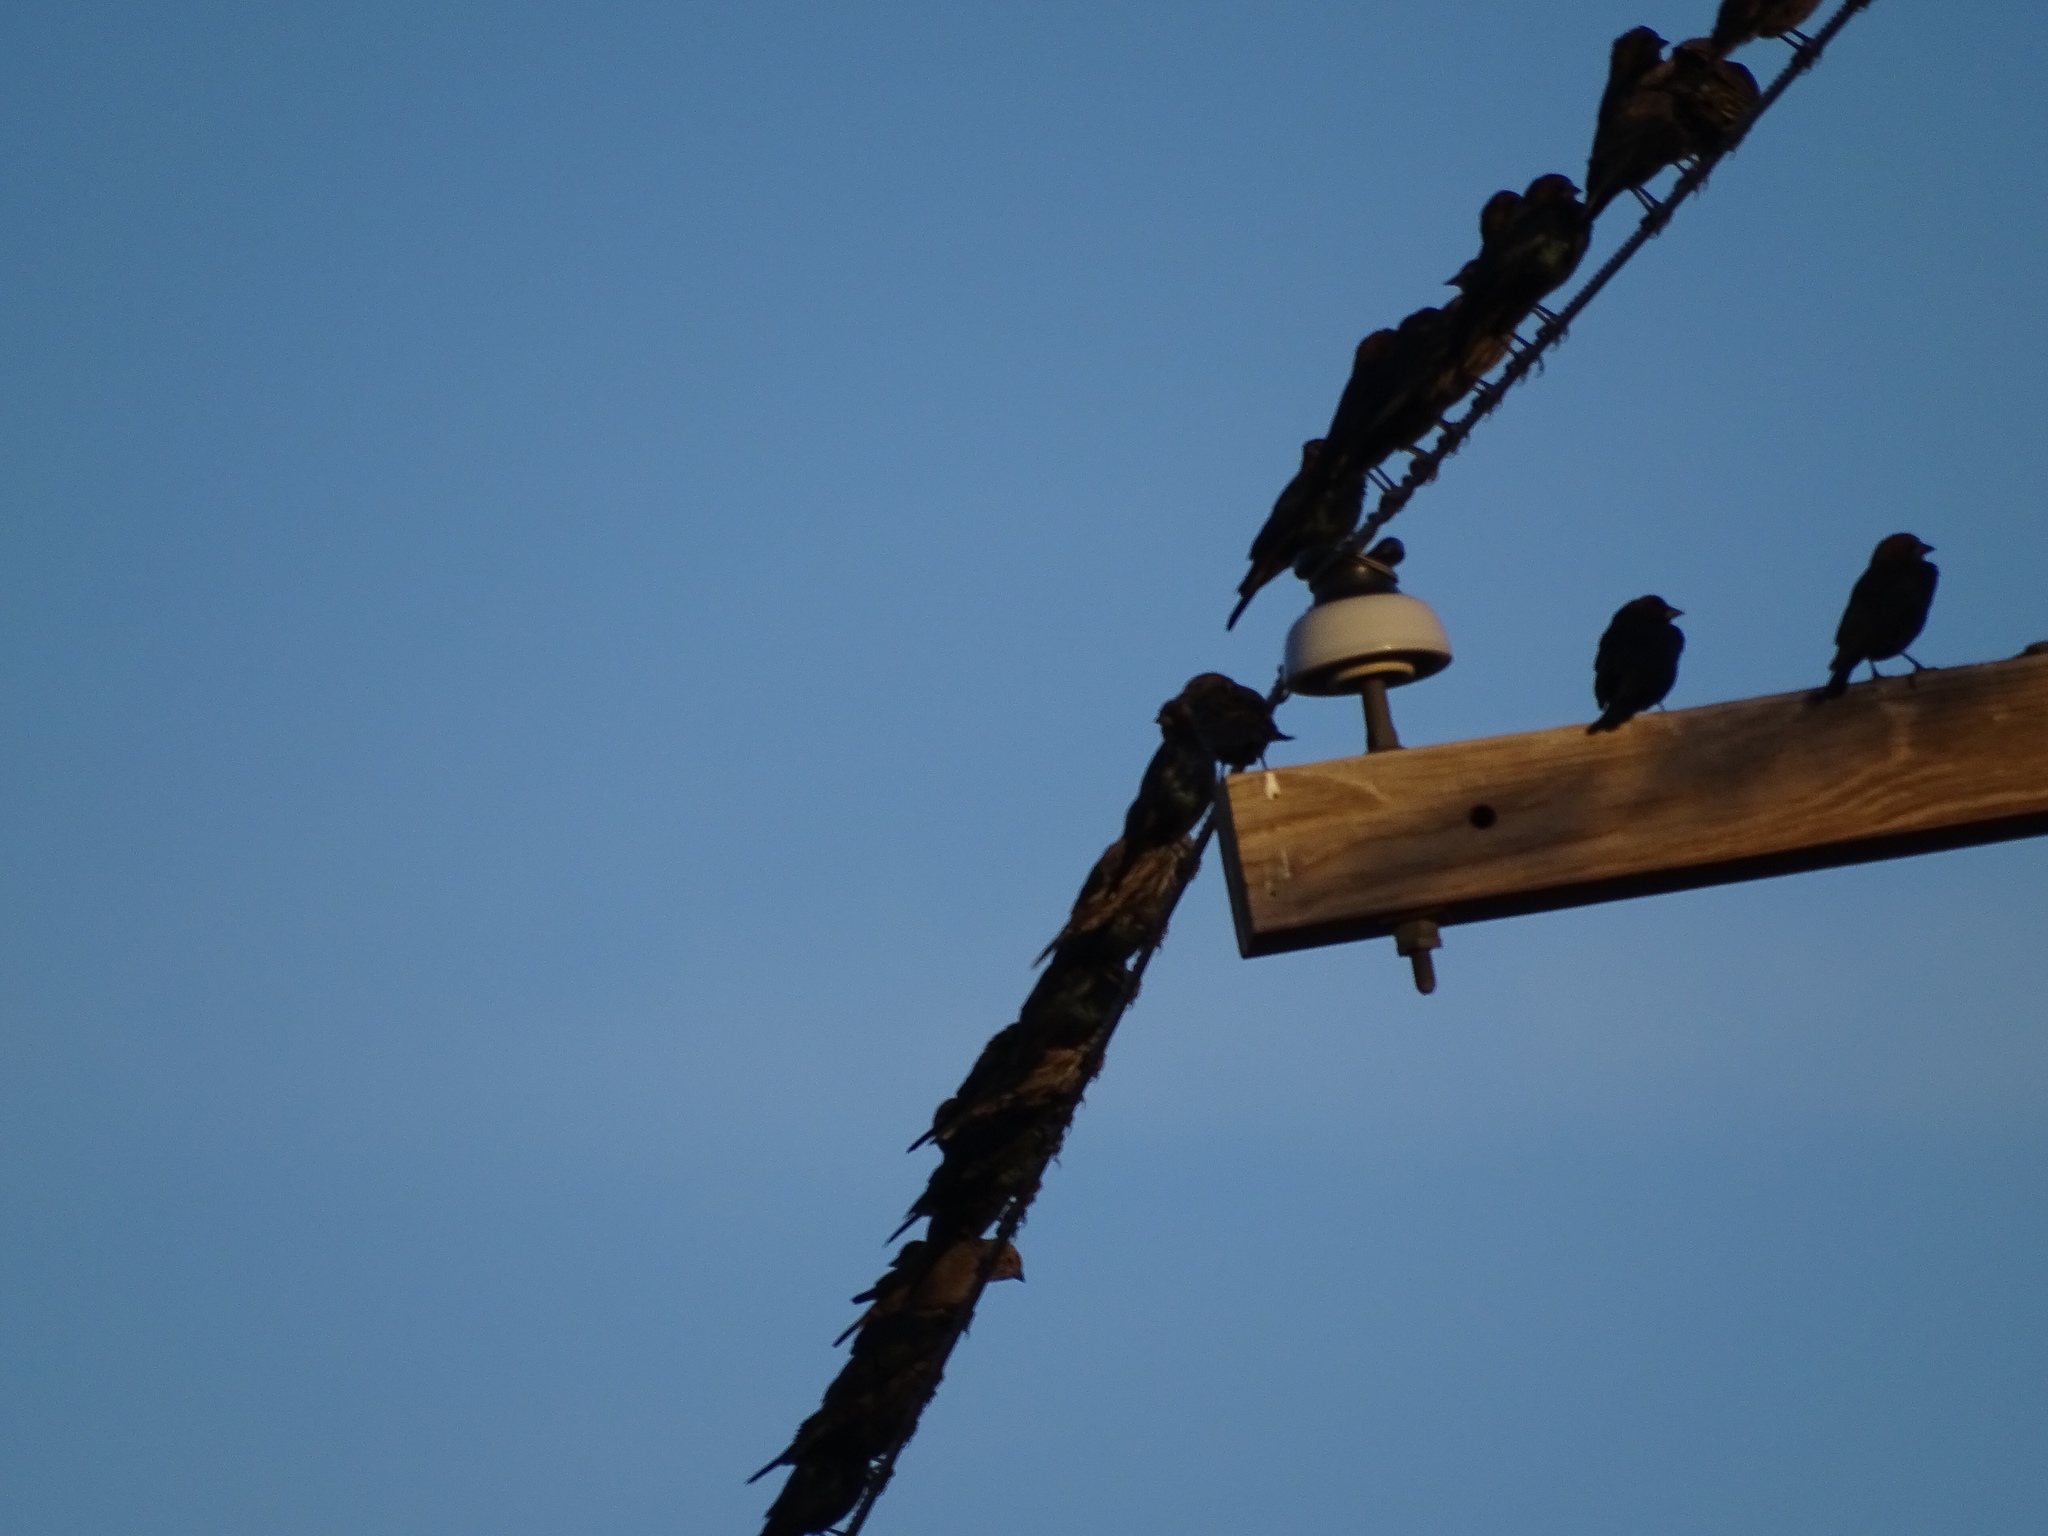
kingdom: Animalia
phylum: Chordata
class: Aves
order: Passeriformes
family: Icteridae
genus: Molothrus
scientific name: Molothrus aeneus
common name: Bronzed cowbird
